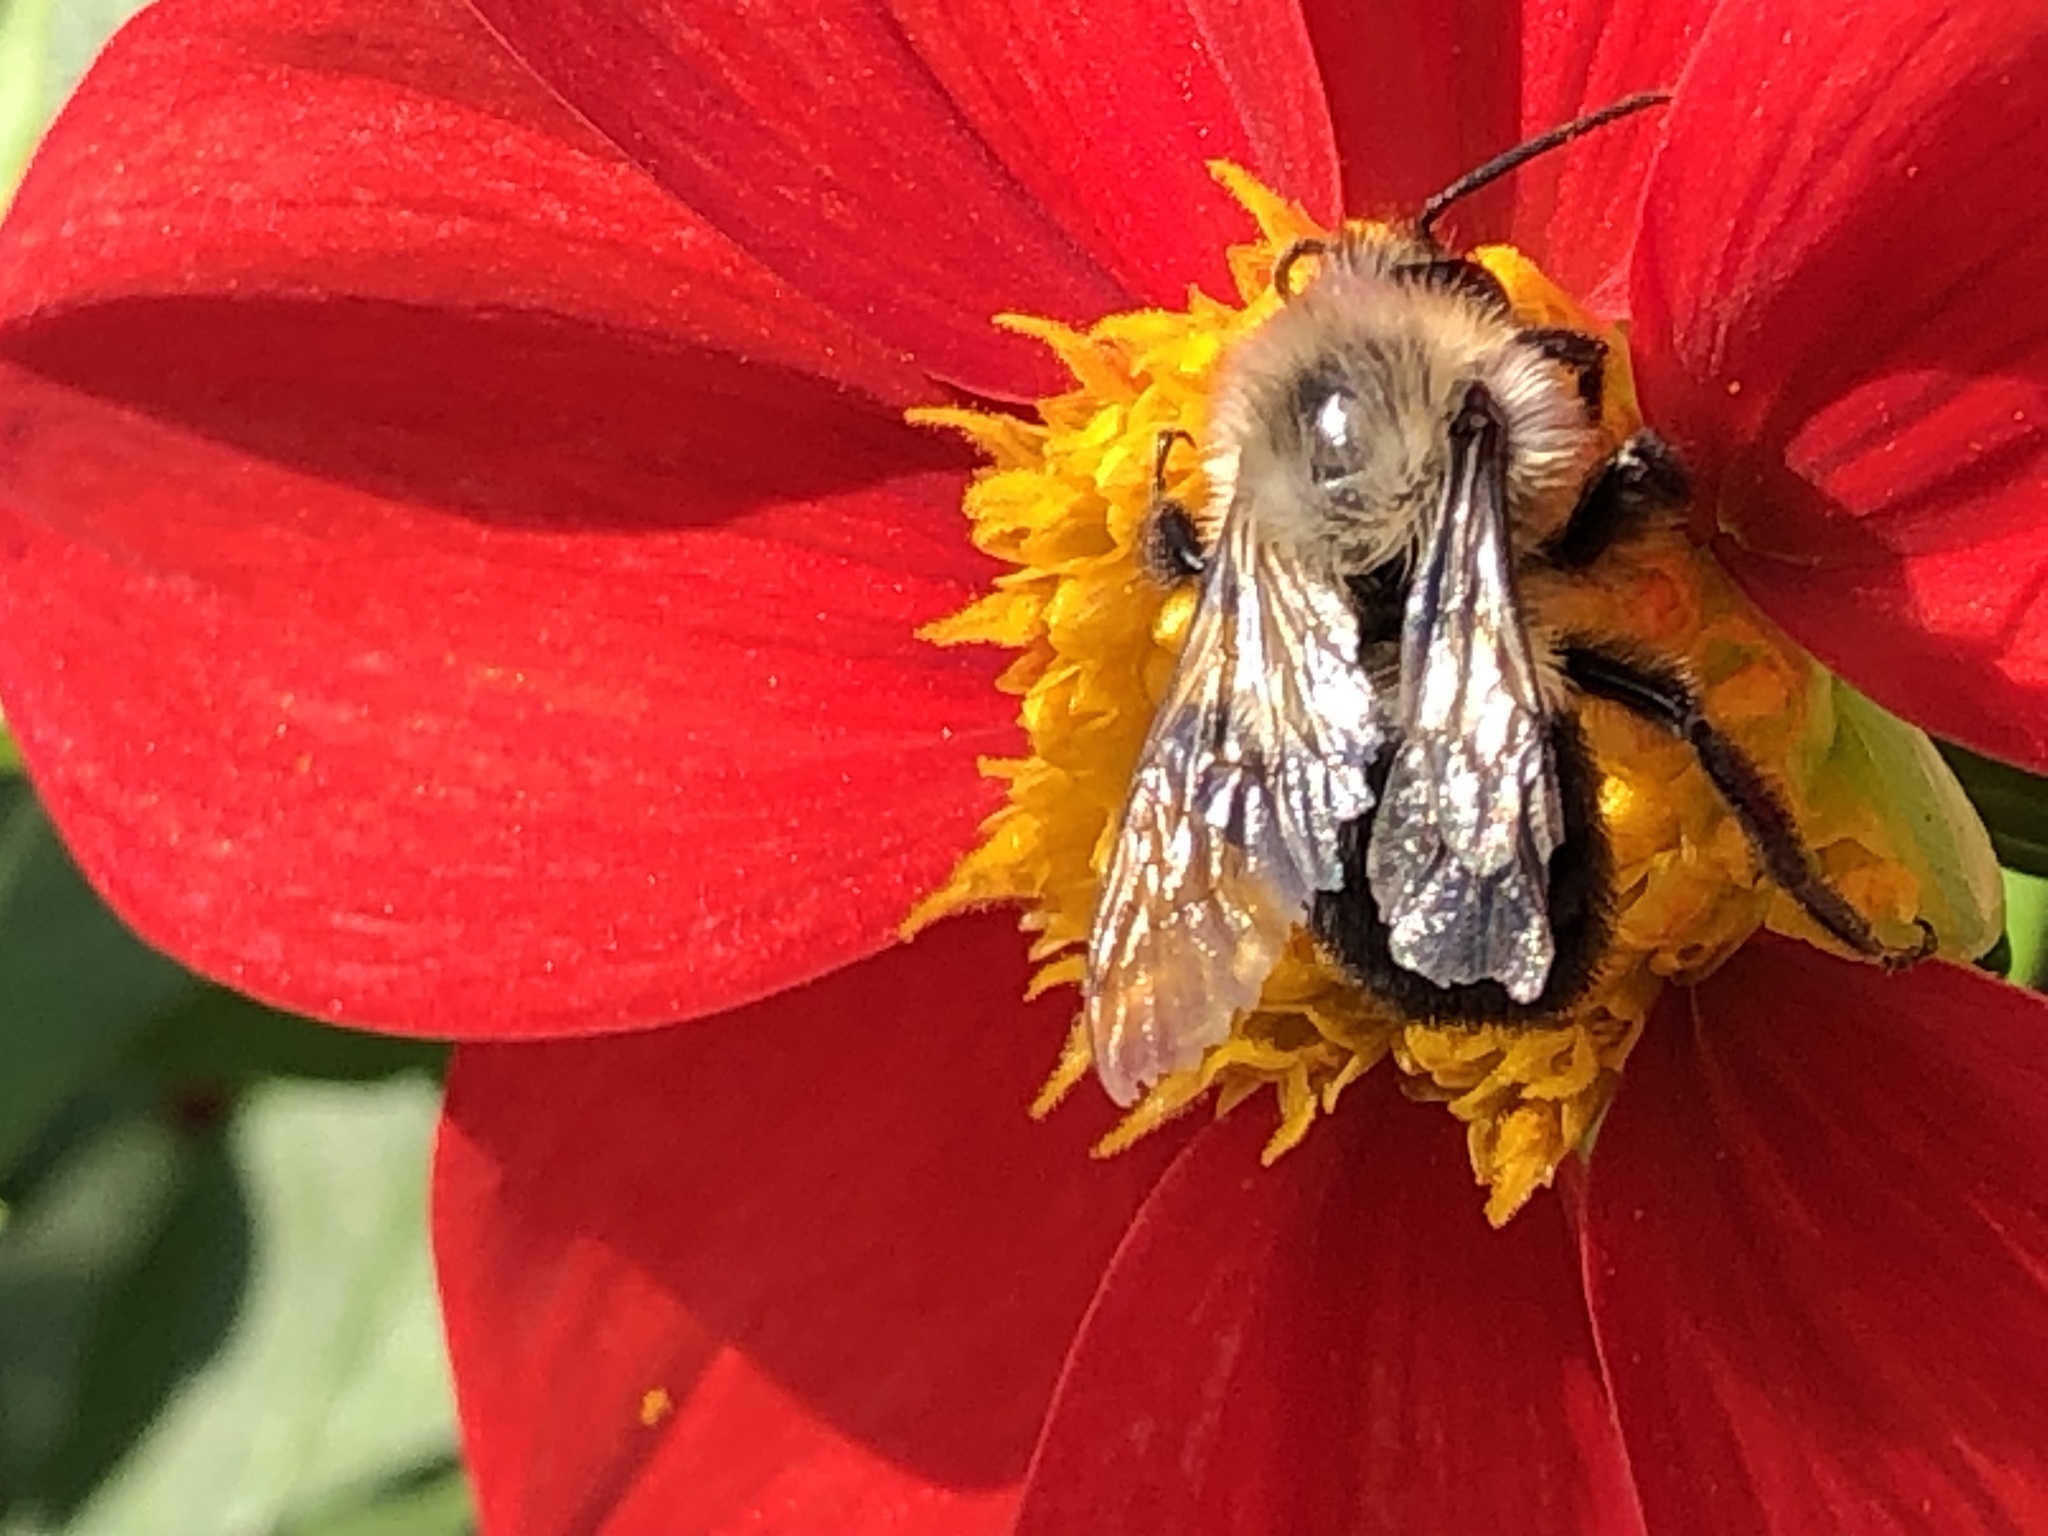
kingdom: Animalia
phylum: Arthropoda
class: Insecta
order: Hymenoptera
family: Apidae
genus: Bombus
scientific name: Bombus impatiens
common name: Common eastern bumble bee
